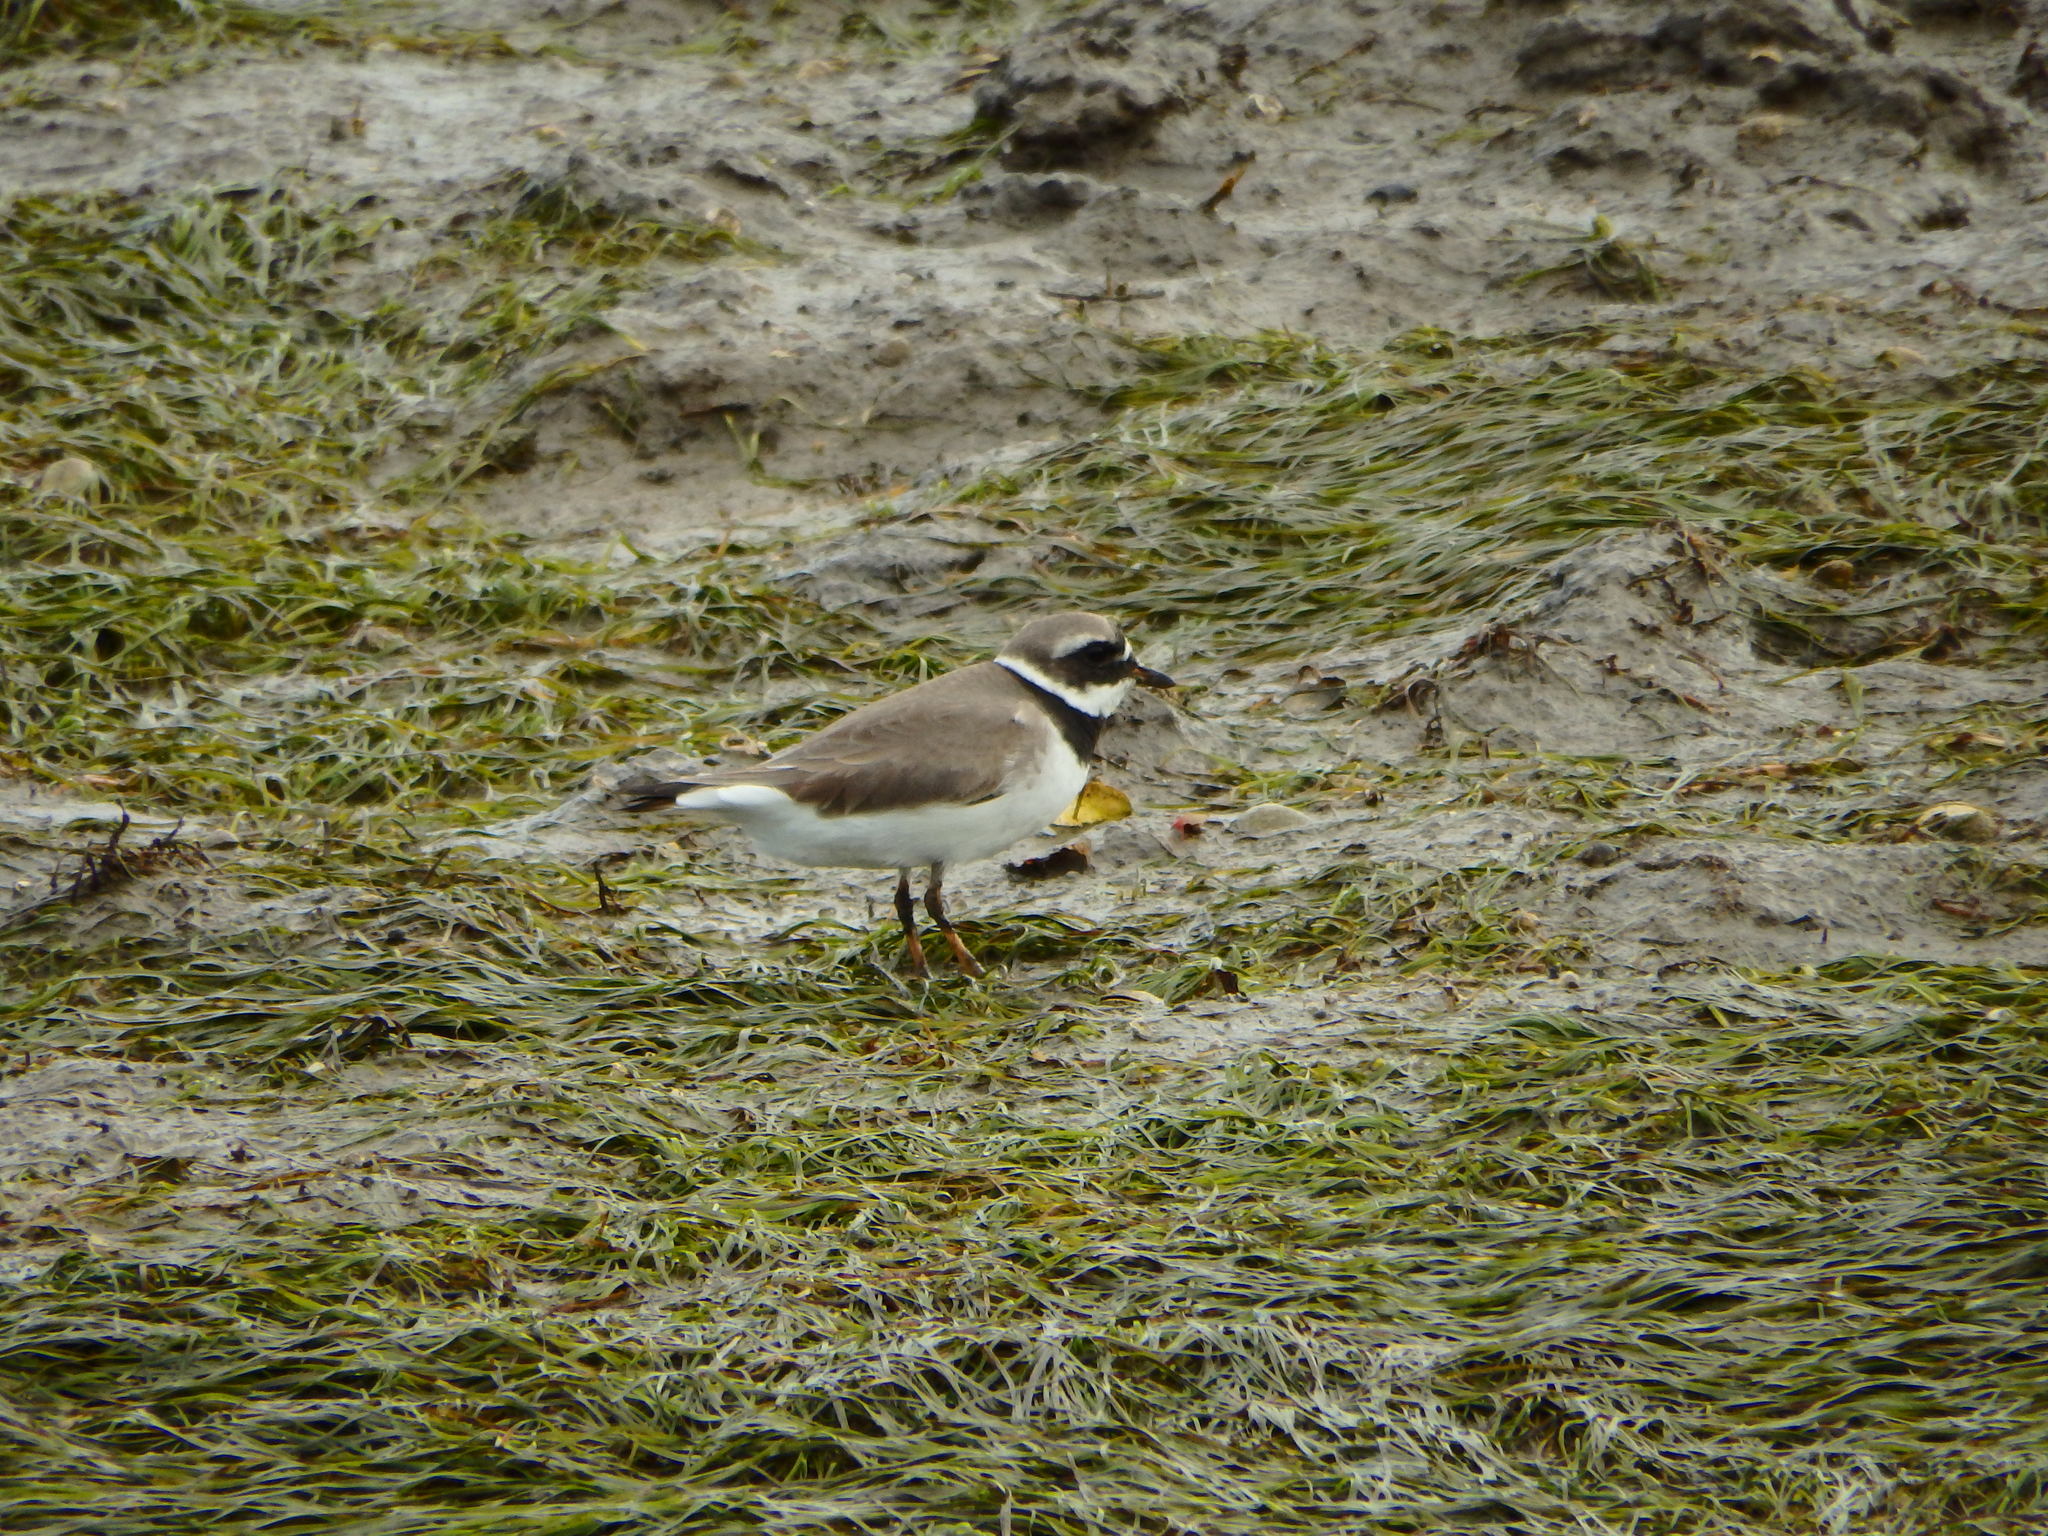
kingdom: Animalia
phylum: Chordata
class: Aves
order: Charadriiformes
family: Charadriidae
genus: Charadrius
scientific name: Charadrius hiaticula
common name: Common ringed plover
